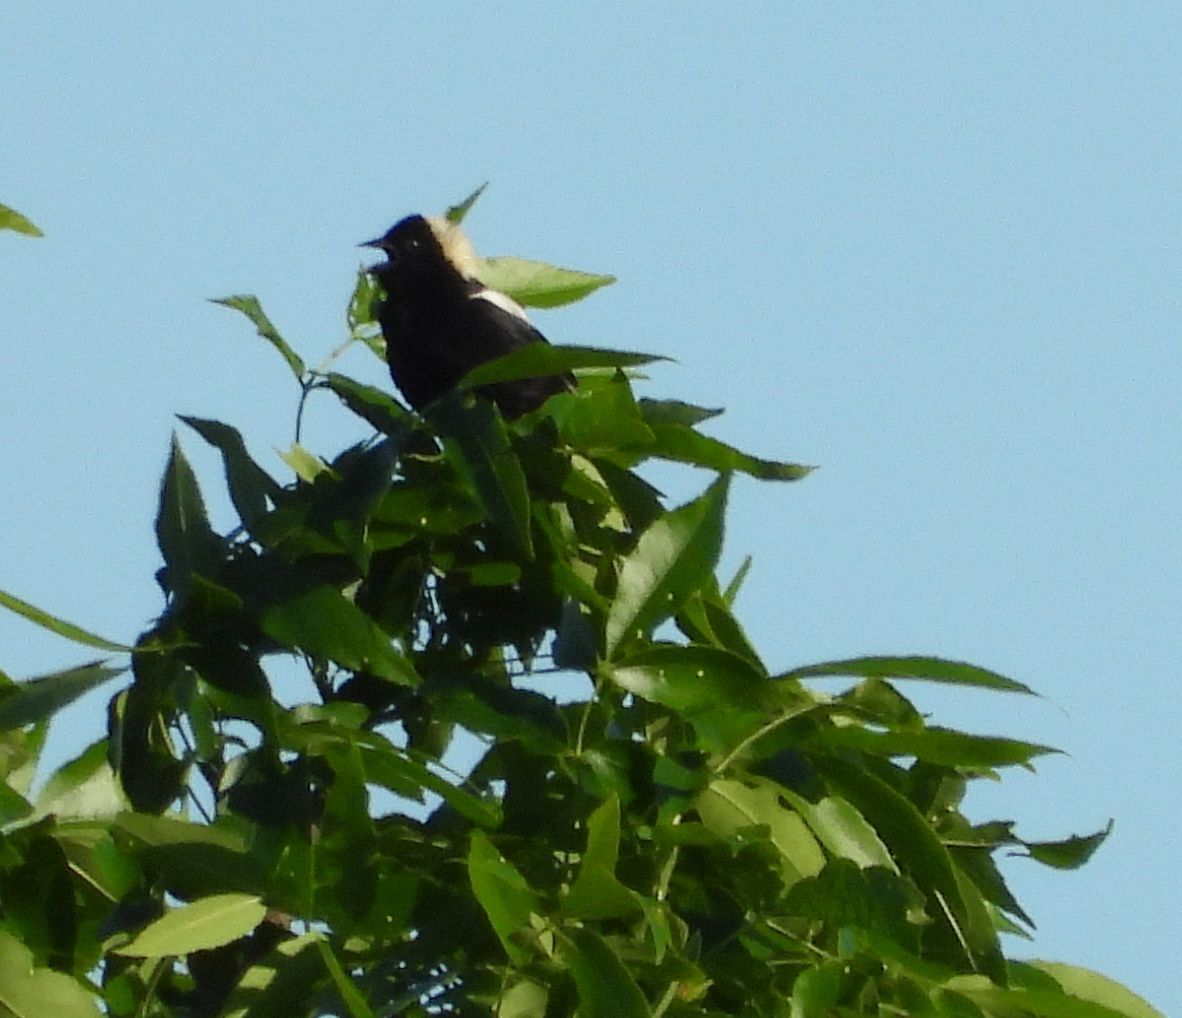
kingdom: Animalia
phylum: Chordata
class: Aves
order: Passeriformes
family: Icteridae
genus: Dolichonyx
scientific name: Dolichonyx oryzivorus
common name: Bobolink
